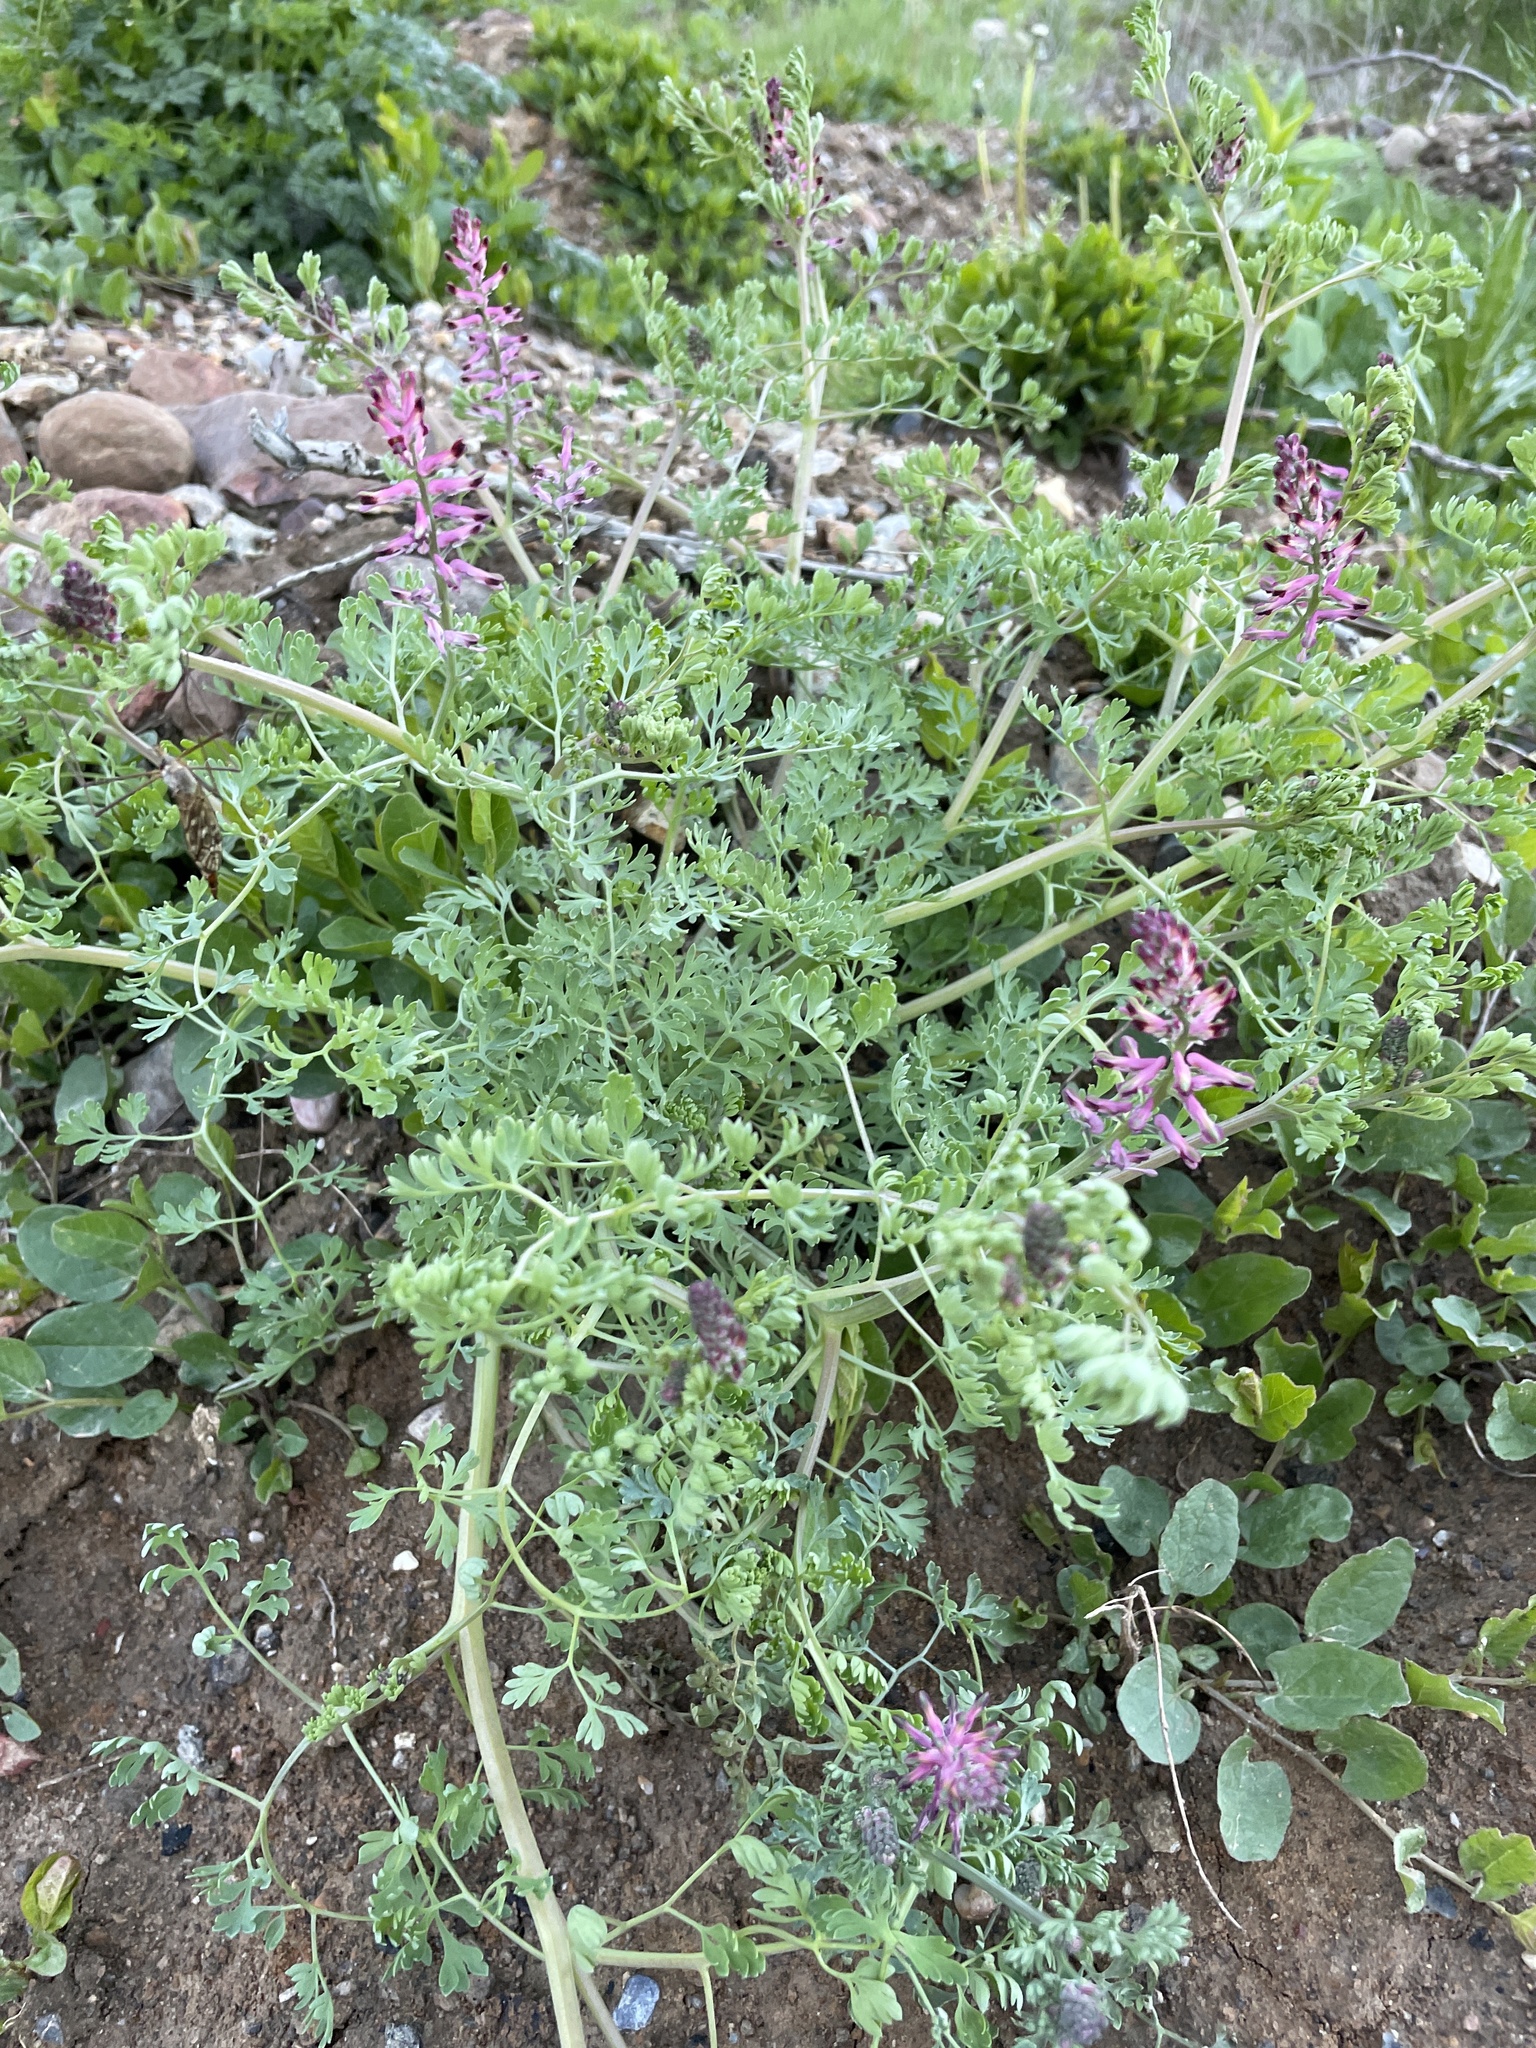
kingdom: Plantae
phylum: Tracheophyta
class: Magnoliopsida
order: Ranunculales
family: Papaveraceae
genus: Fumaria
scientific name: Fumaria officinalis
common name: Common fumitory
